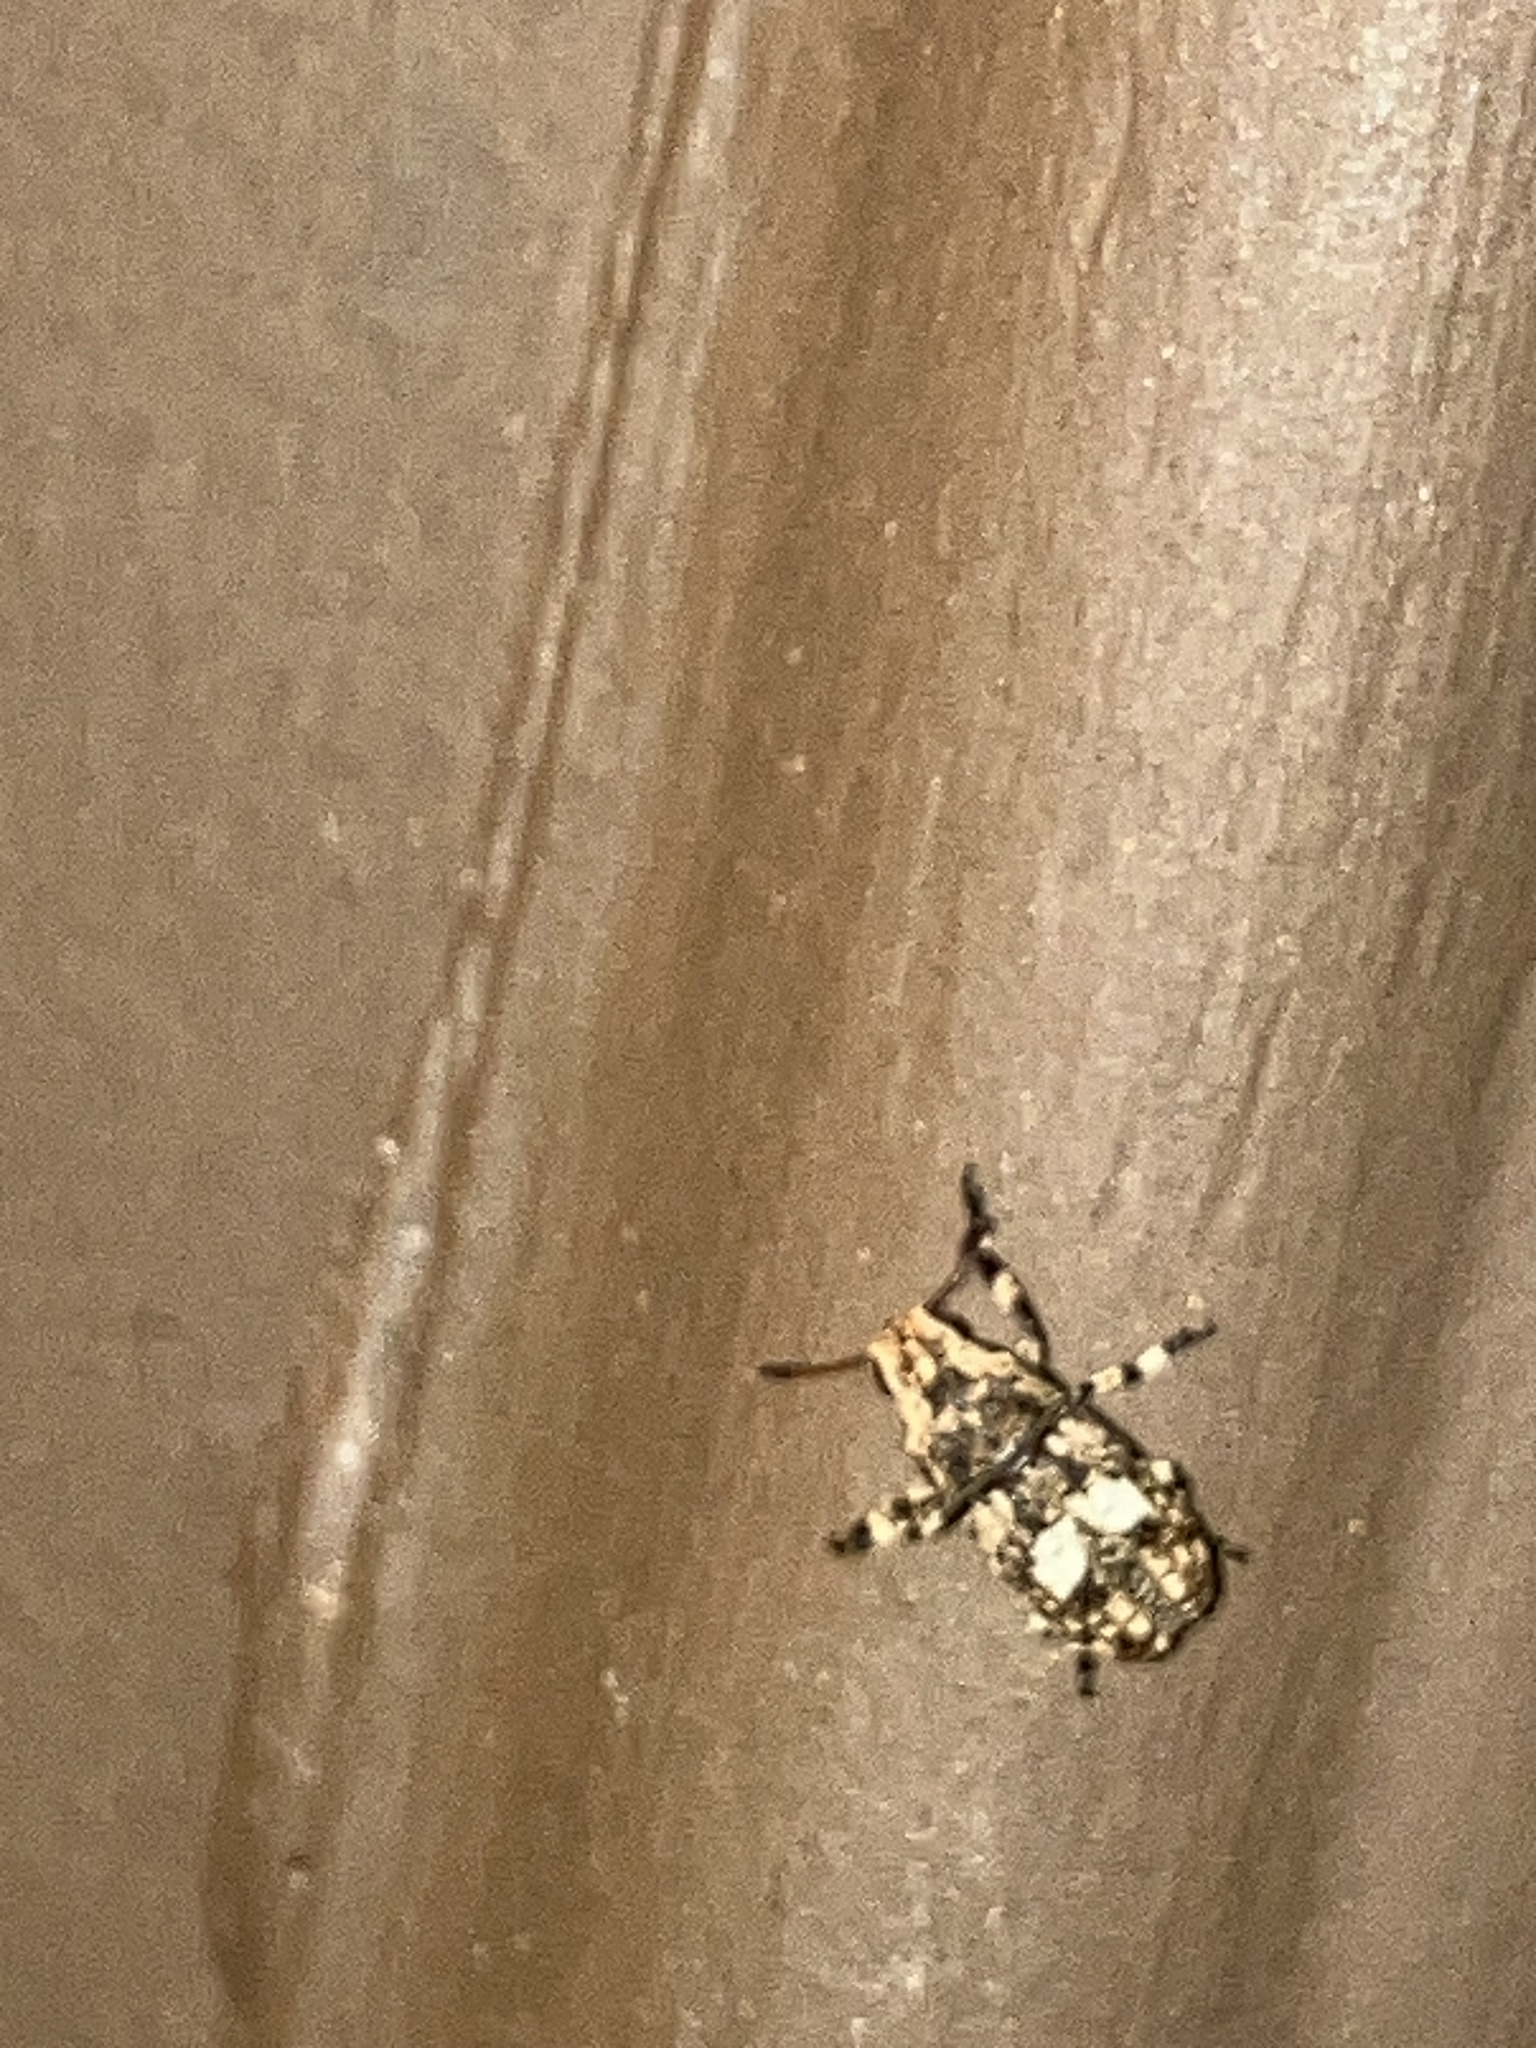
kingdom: Animalia
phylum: Arthropoda
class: Insecta
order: Coleoptera
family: Anthribidae
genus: Euparius
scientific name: Euparius marmoreus
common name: Marbled fungus weevil
